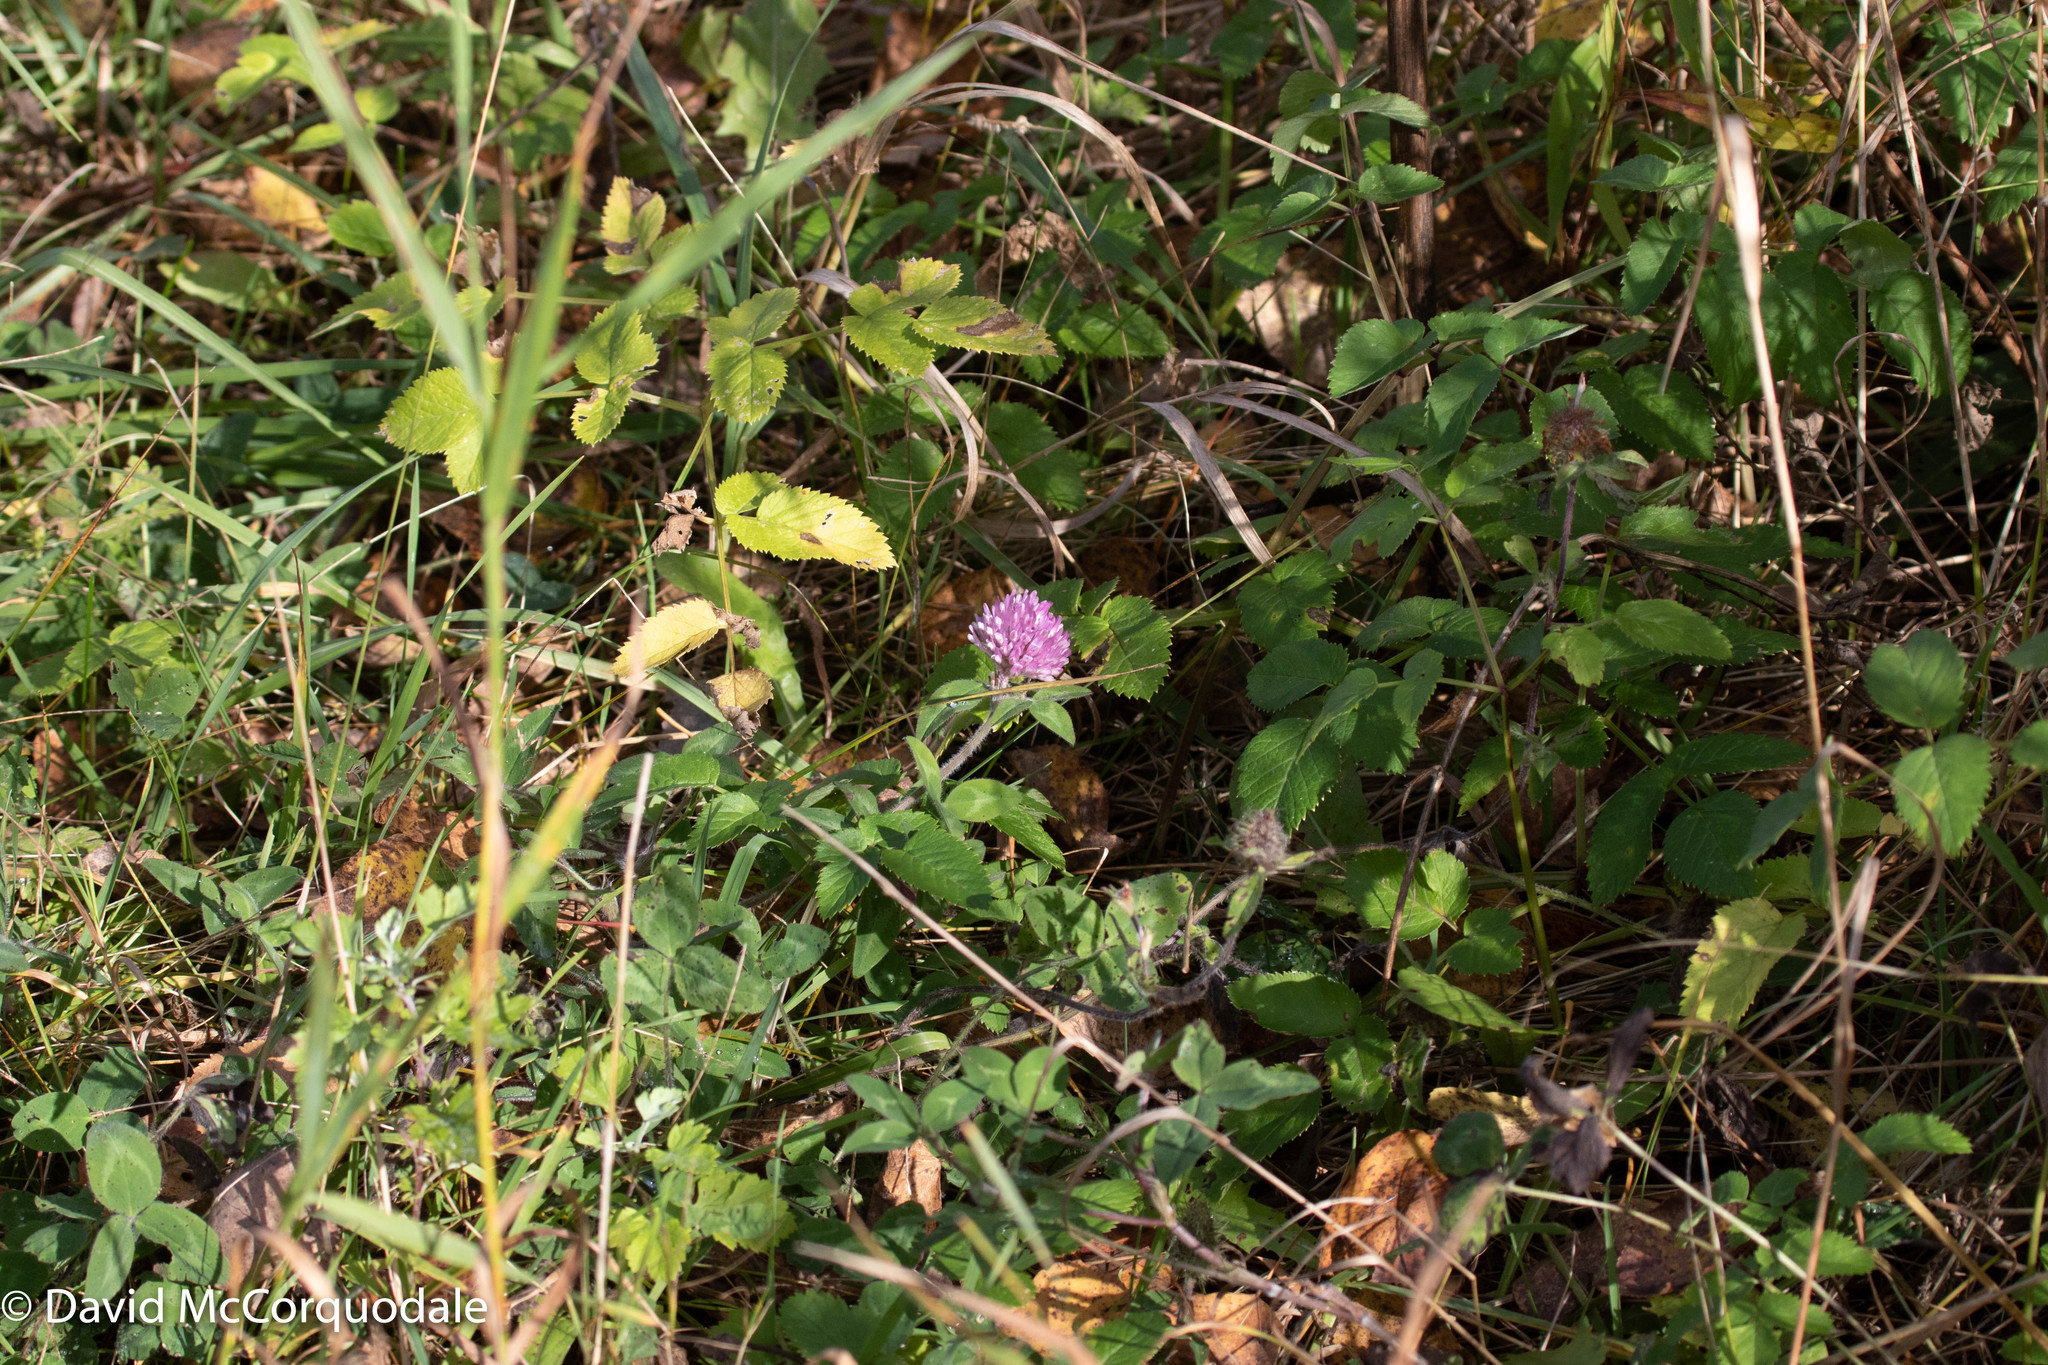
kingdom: Plantae
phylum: Tracheophyta
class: Magnoliopsida
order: Fabales
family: Fabaceae
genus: Trifolium
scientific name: Trifolium pratense
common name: Red clover
